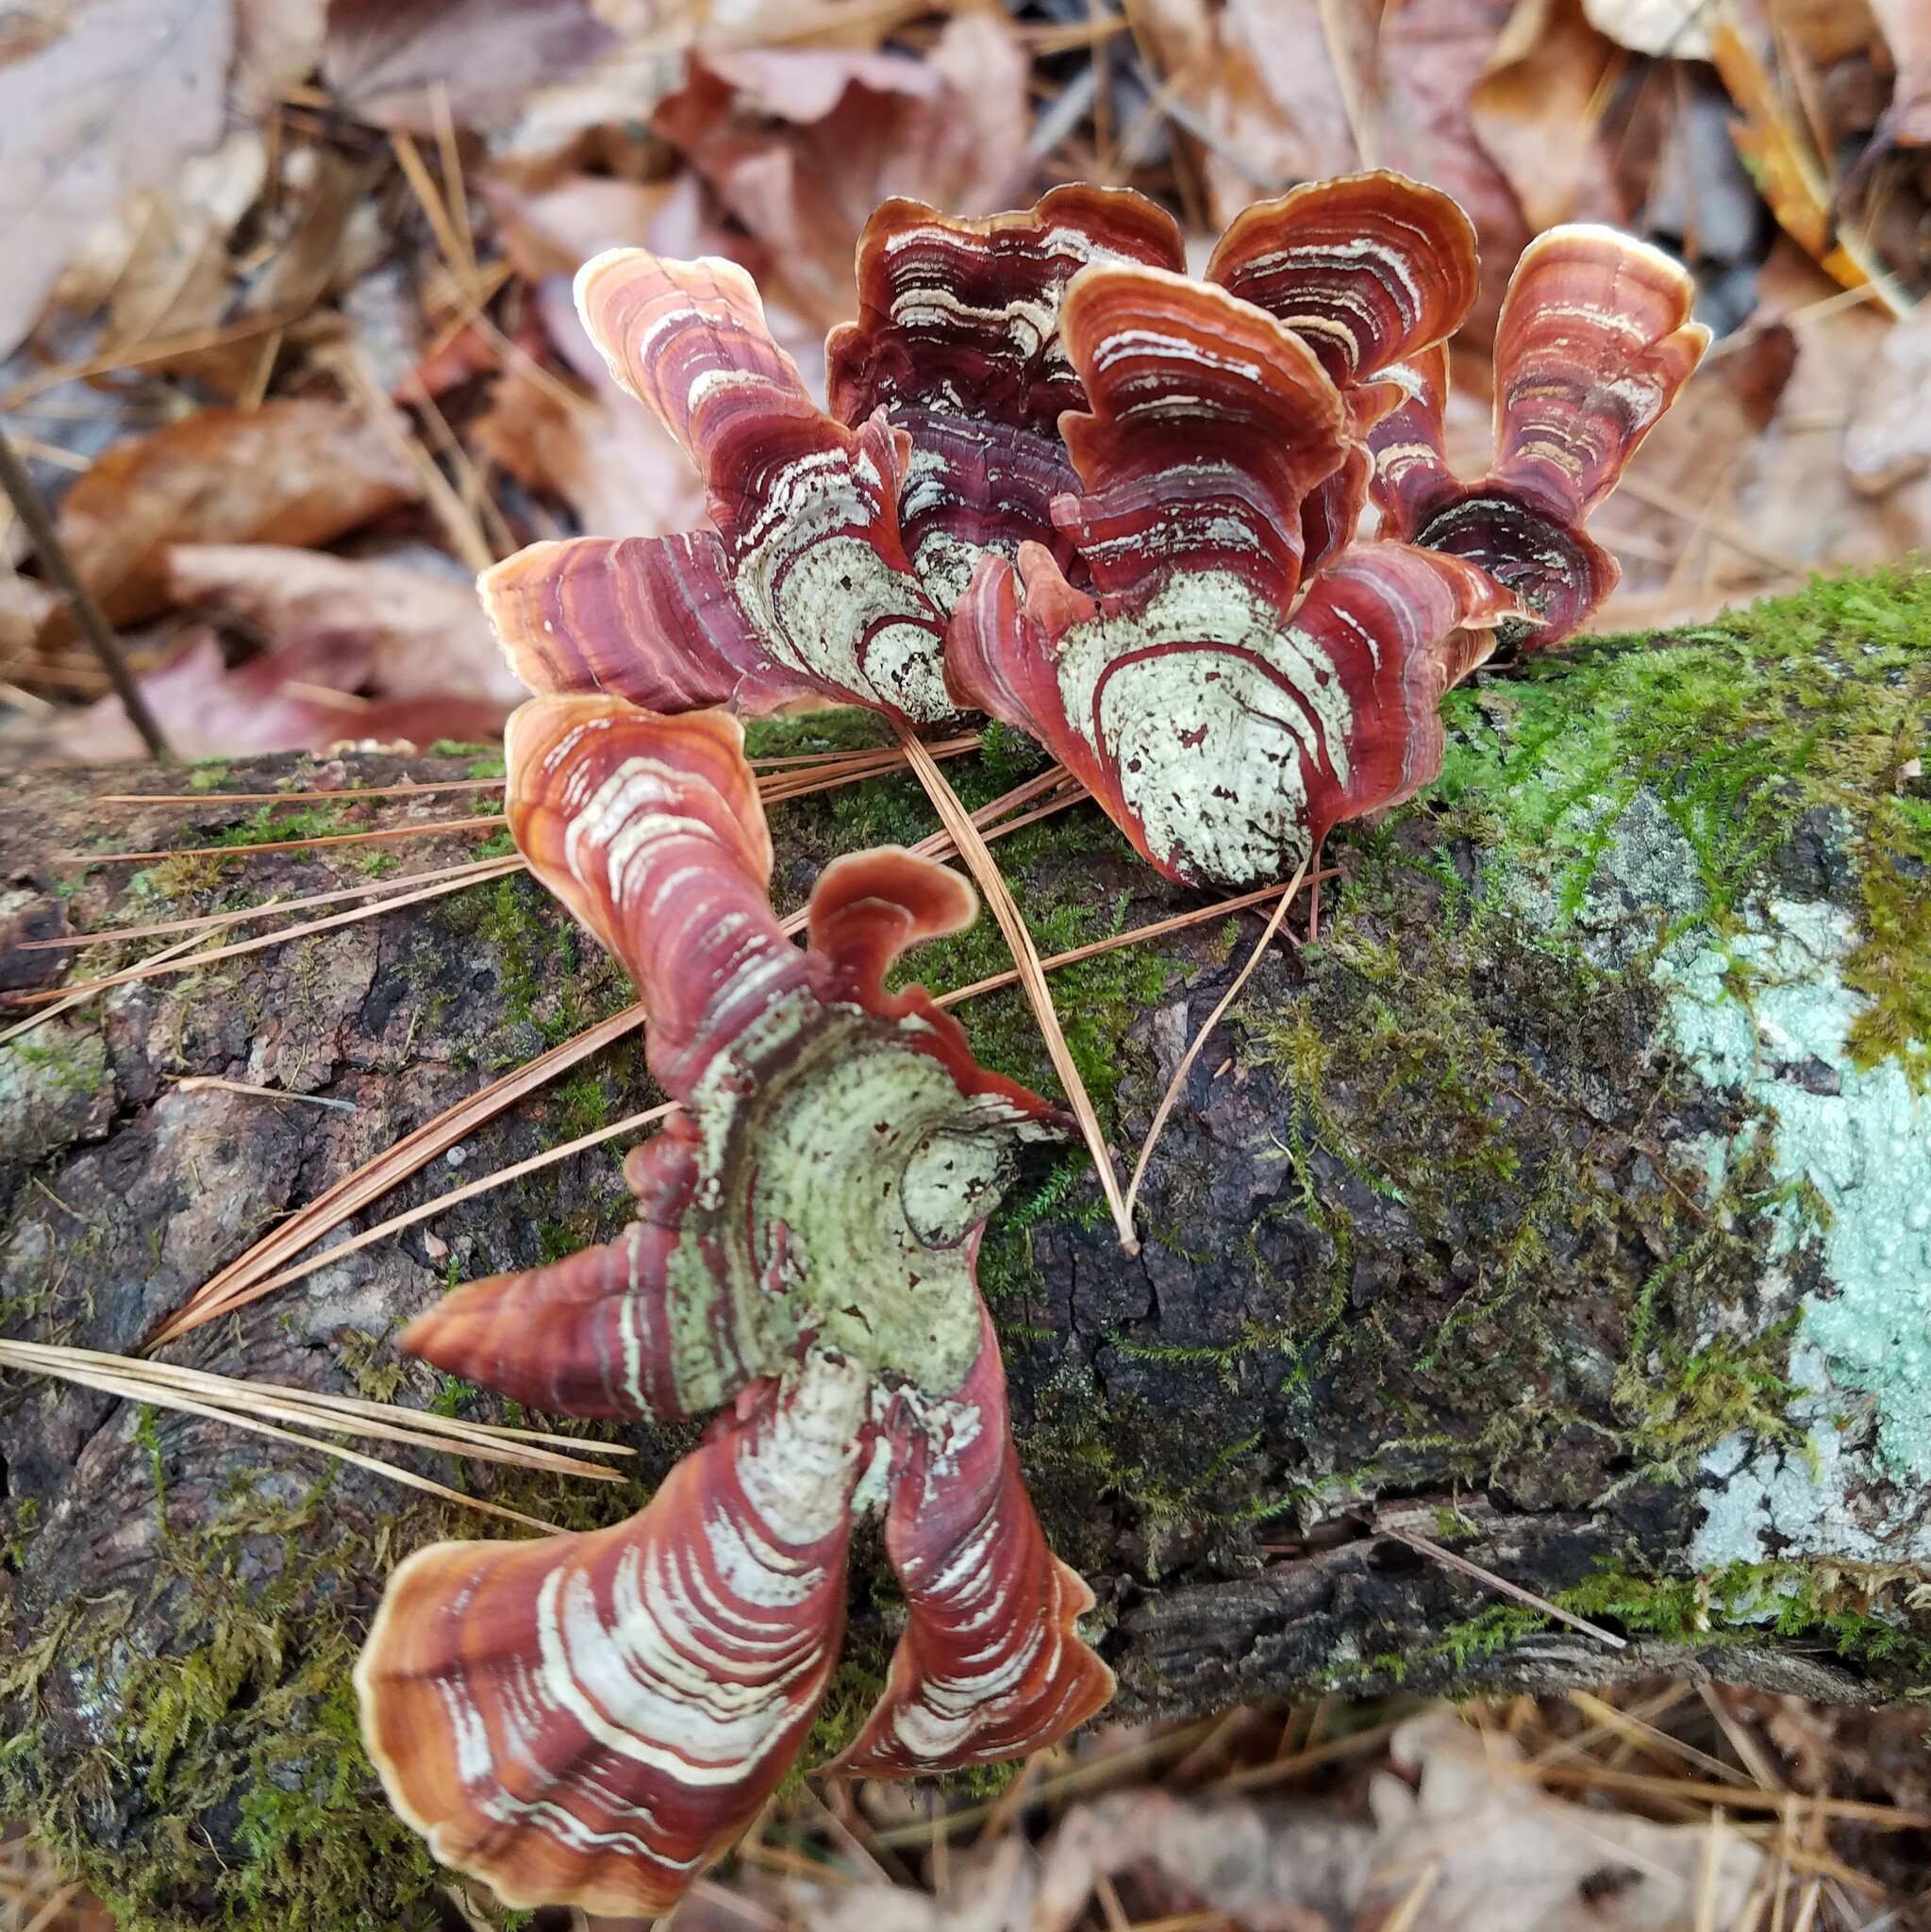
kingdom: Fungi
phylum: Basidiomycota
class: Agaricomycetes
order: Russulales
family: Stereaceae
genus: Stereum
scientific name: Stereum lobatum
